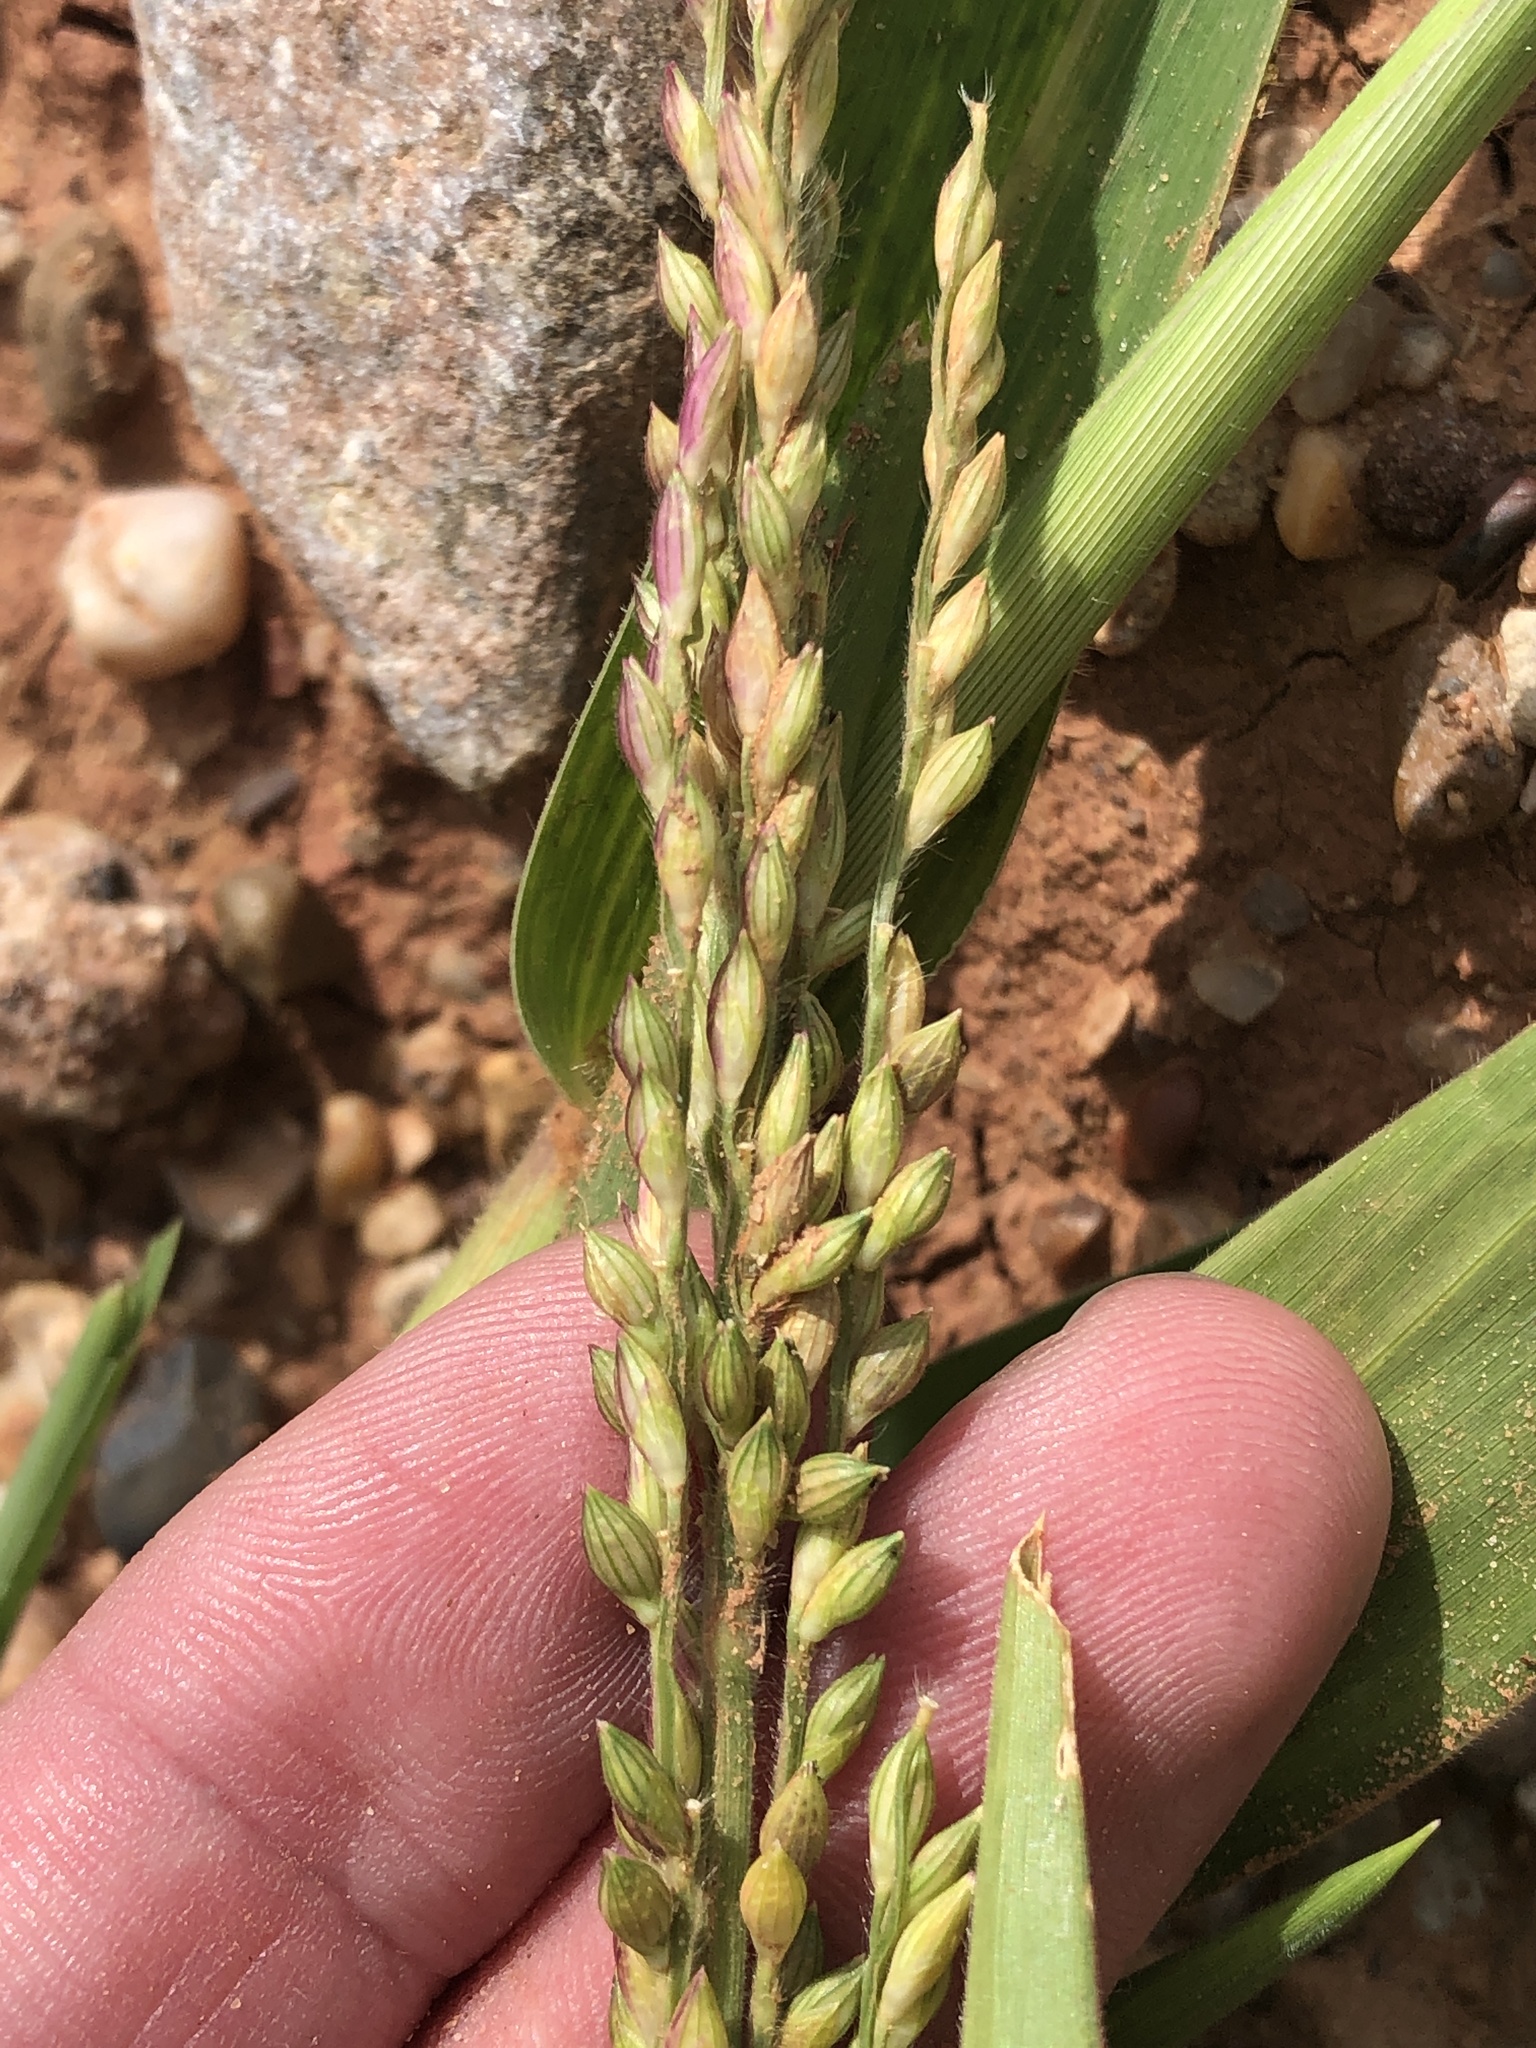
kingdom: Plantae
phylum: Tracheophyta
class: Liliopsida
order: Poales
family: Poaceae
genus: Urochloa
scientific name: Urochloa texana
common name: Texas millet
